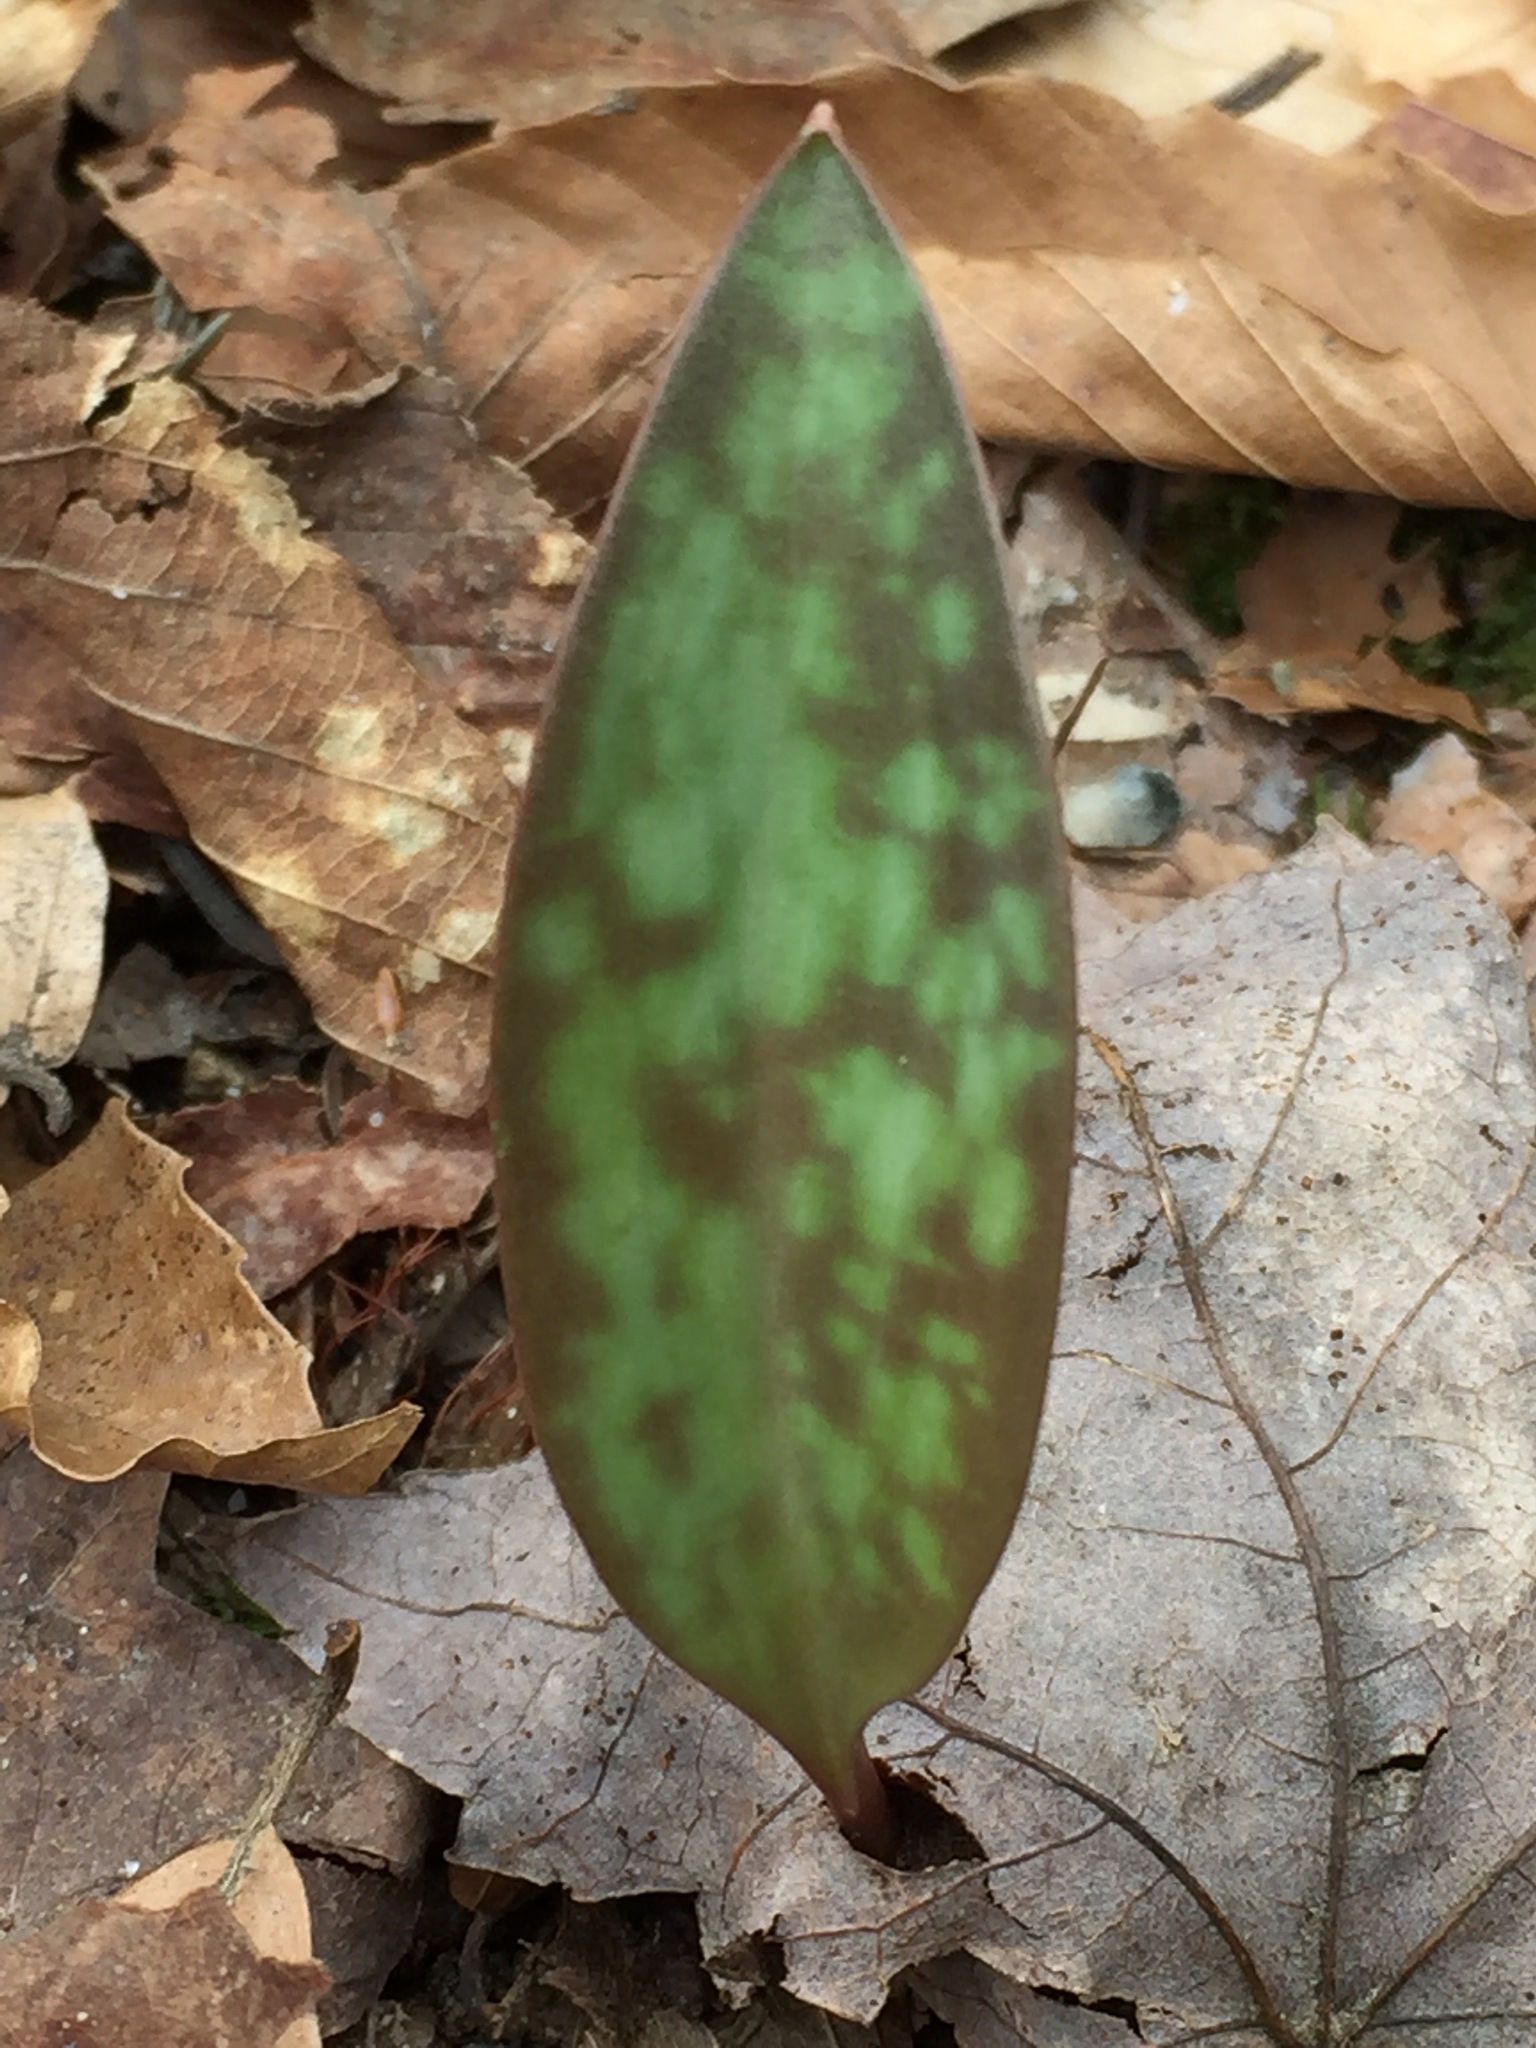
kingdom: Plantae
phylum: Tracheophyta
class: Liliopsida
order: Liliales
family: Liliaceae
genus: Erythronium
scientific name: Erythronium americanum
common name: Yellow adder's-tongue
